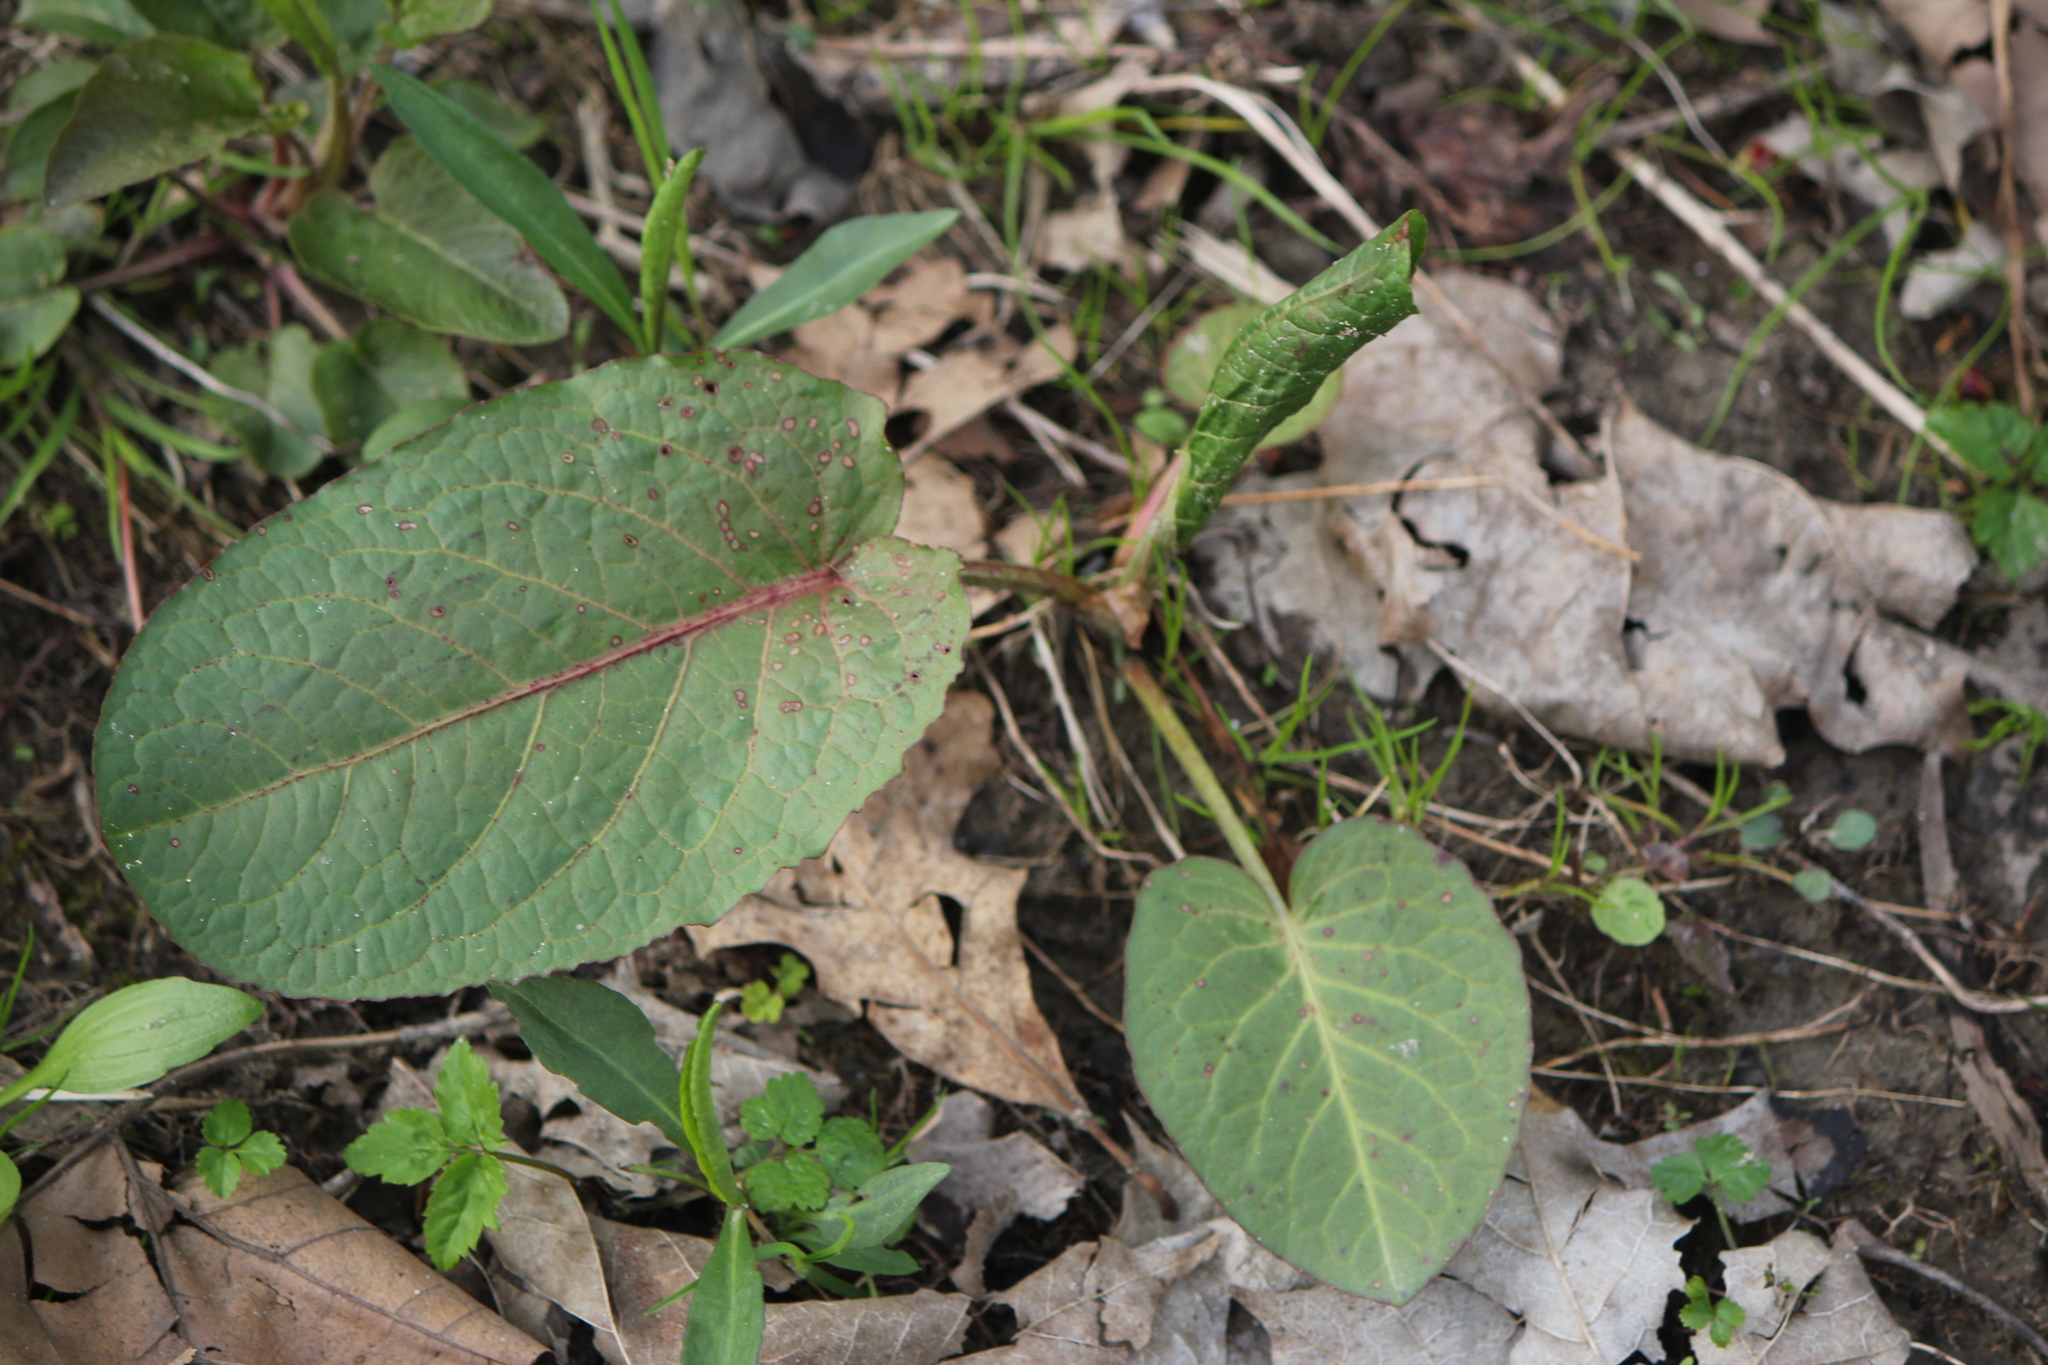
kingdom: Plantae
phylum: Tracheophyta
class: Magnoliopsida
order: Caryophyllales
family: Polygonaceae
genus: Rumex
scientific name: Rumex obtusifolius
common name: Bitter dock
